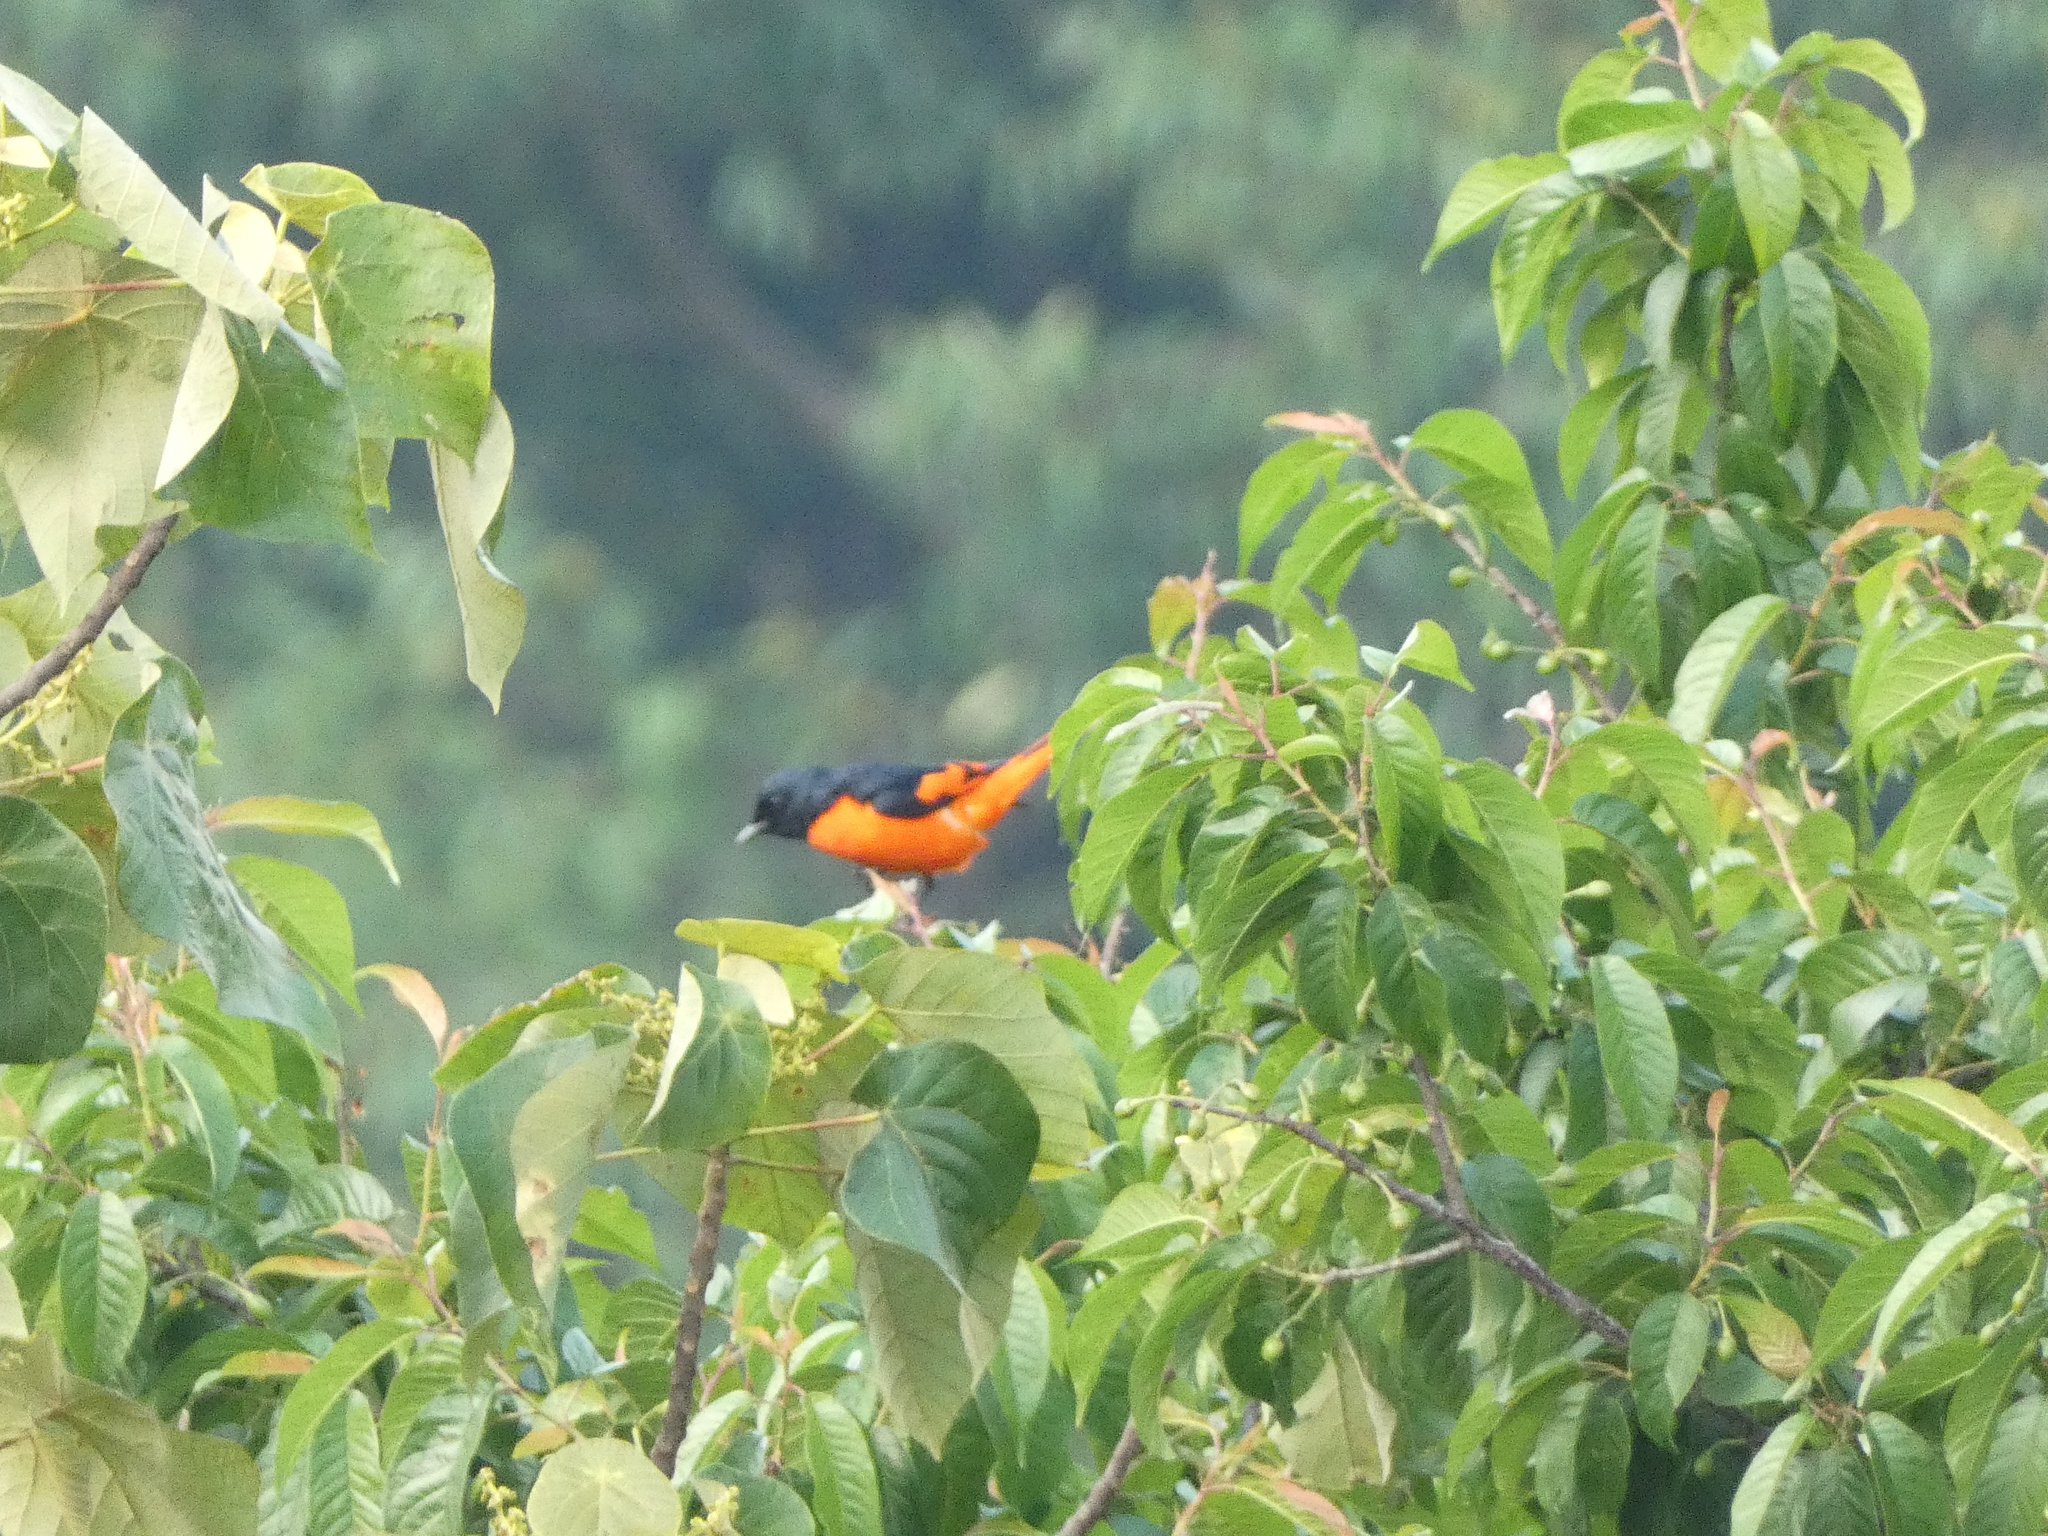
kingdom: Animalia
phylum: Chordata
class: Aves
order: Passeriformes
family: Campephagidae
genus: Pericrocotus
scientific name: Pericrocotus speciosus
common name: Scarlet minivet
